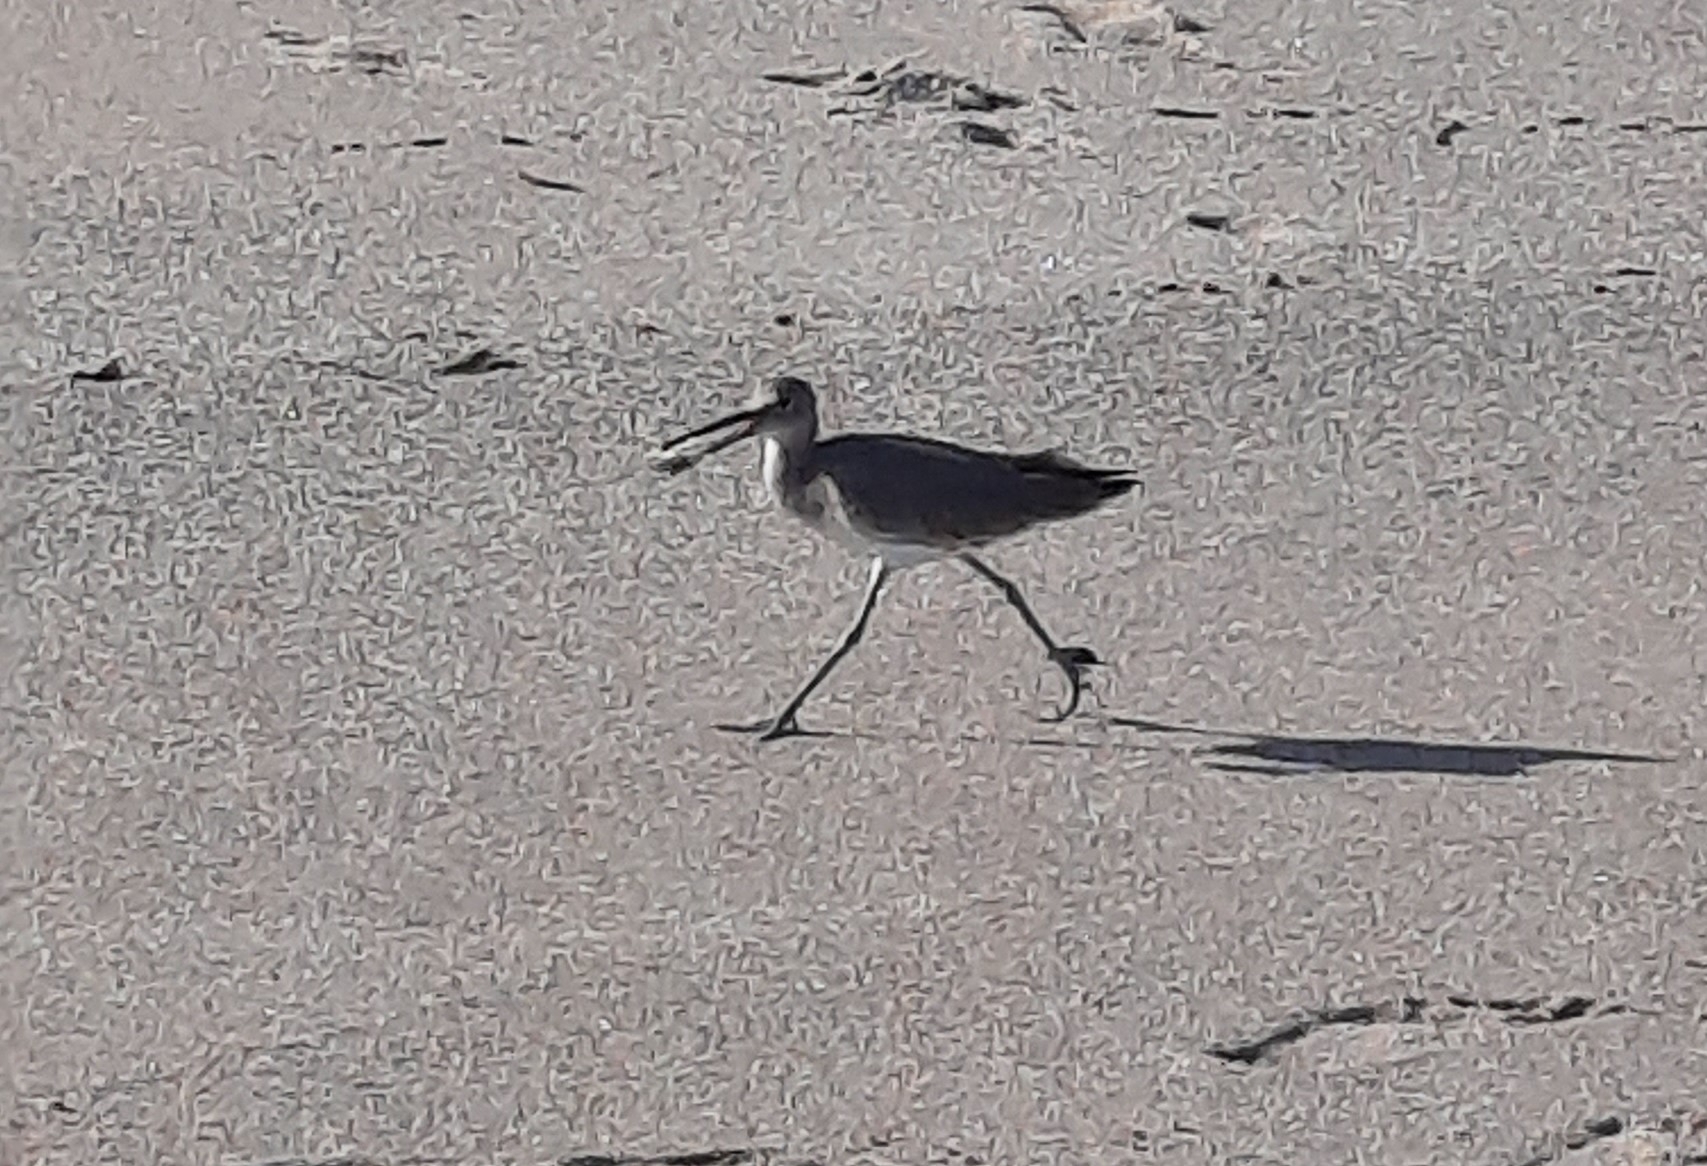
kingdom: Animalia
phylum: Chordata
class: Aves
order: Charadriiformes
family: Scolopacidae
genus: Tringa
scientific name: Tringa semipalmata
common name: Willet
